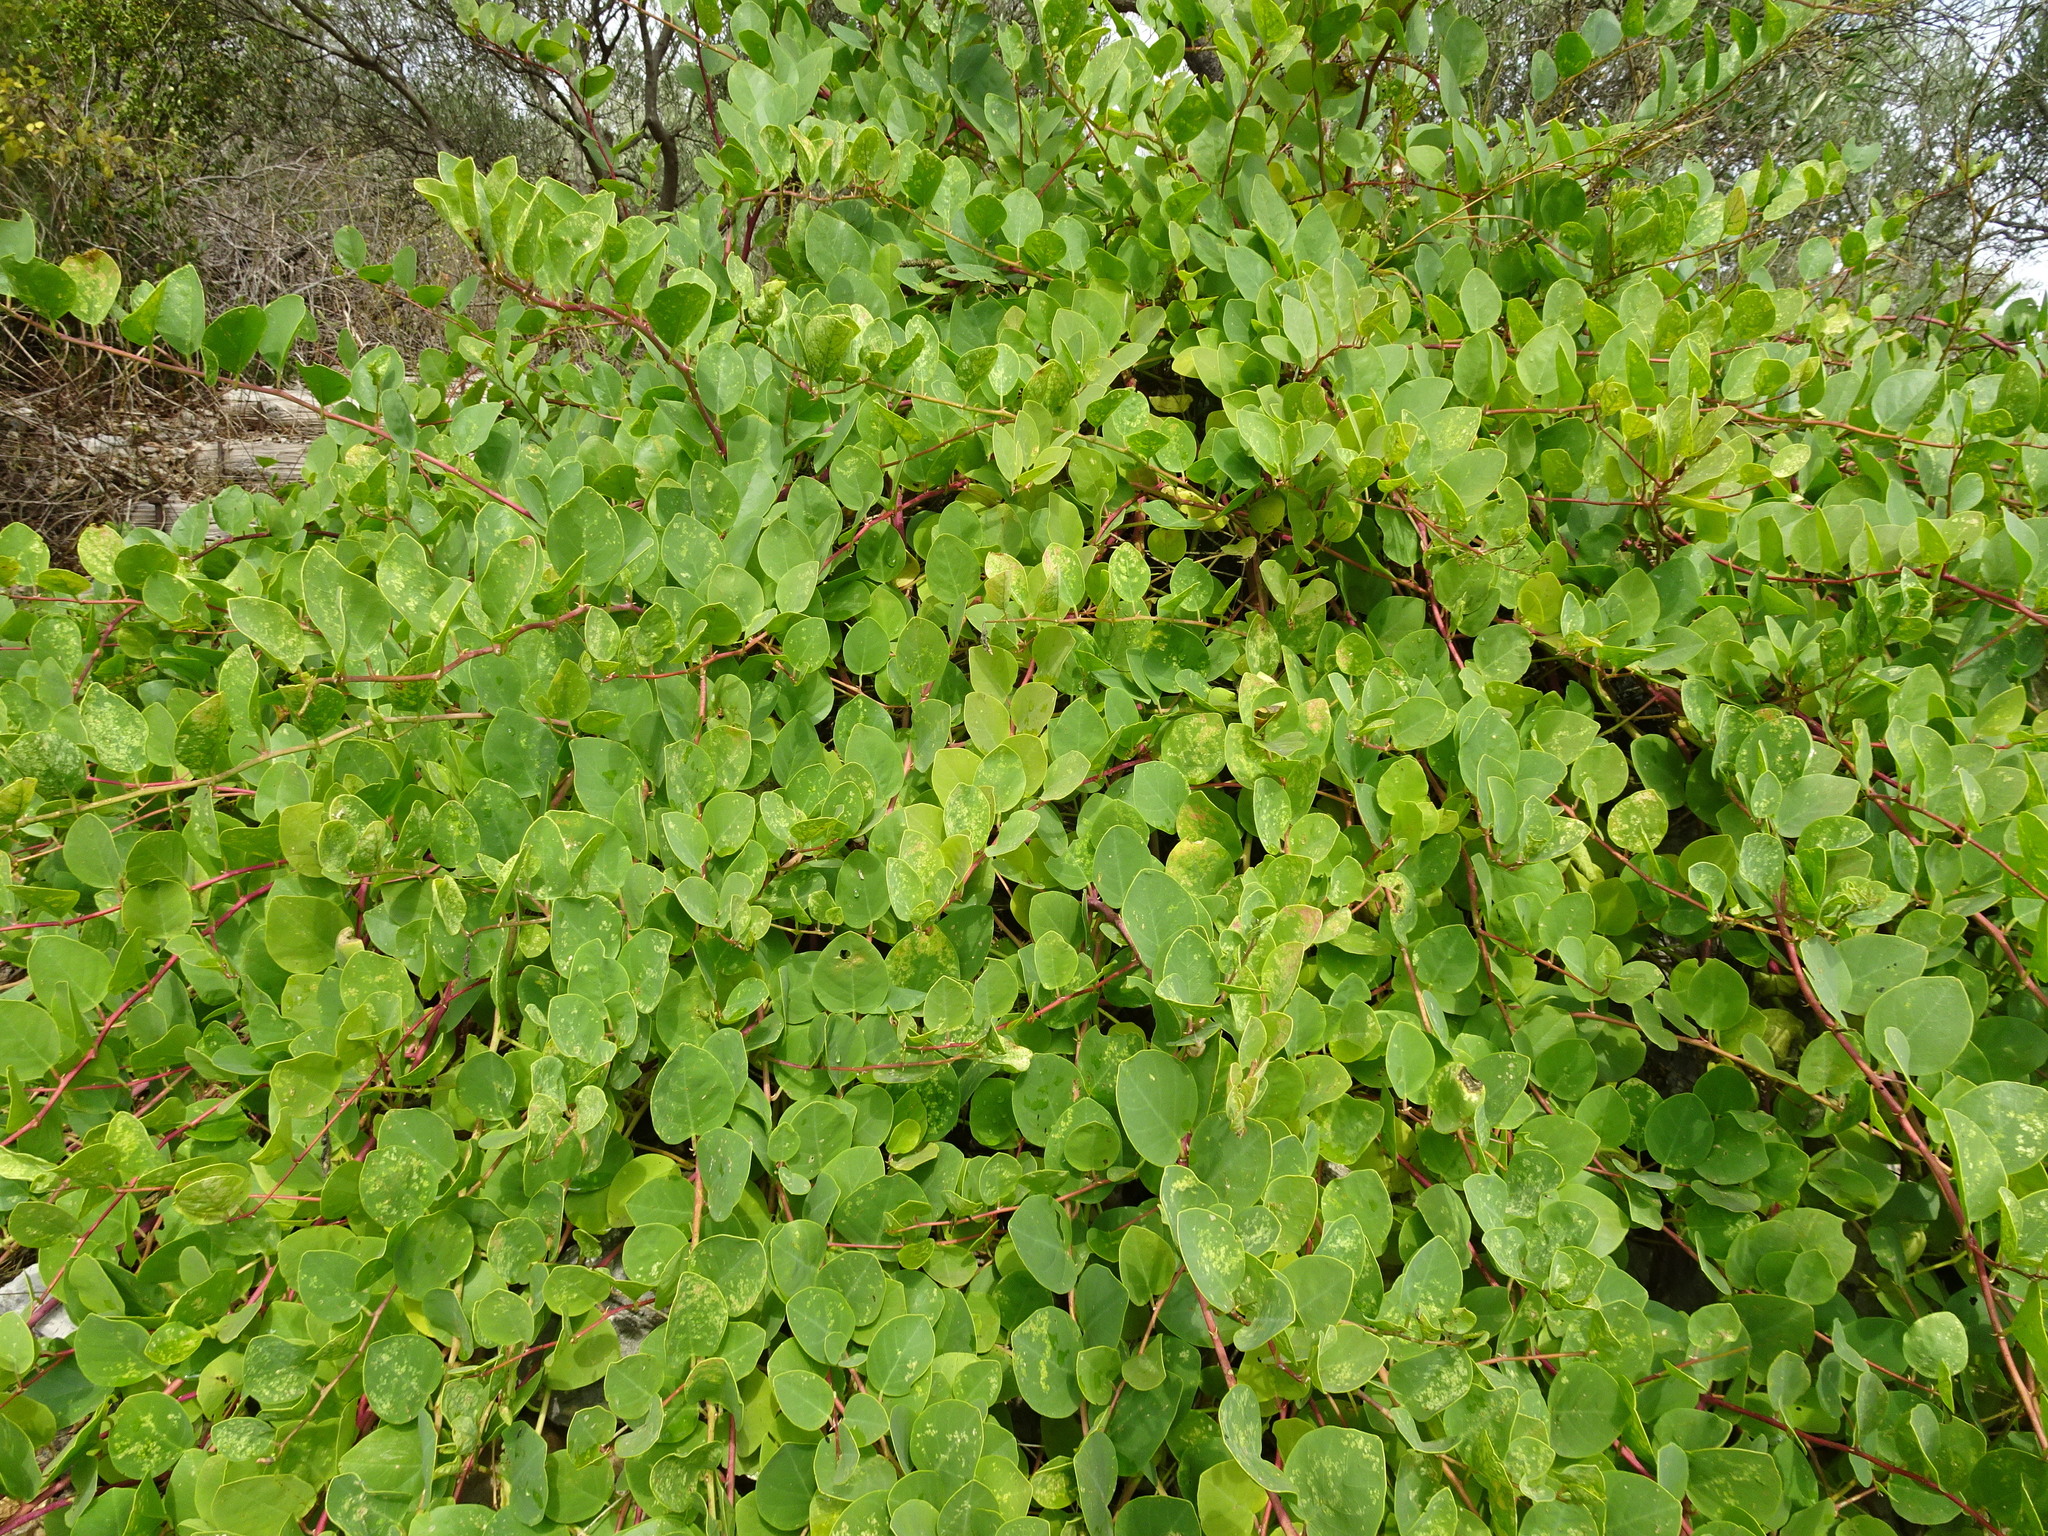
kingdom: Plantae
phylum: Tracheophyta
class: Magnoliopsida
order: Brassicales
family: Capparaceae
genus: Capparis
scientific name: Capparis spinosa
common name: Caper
